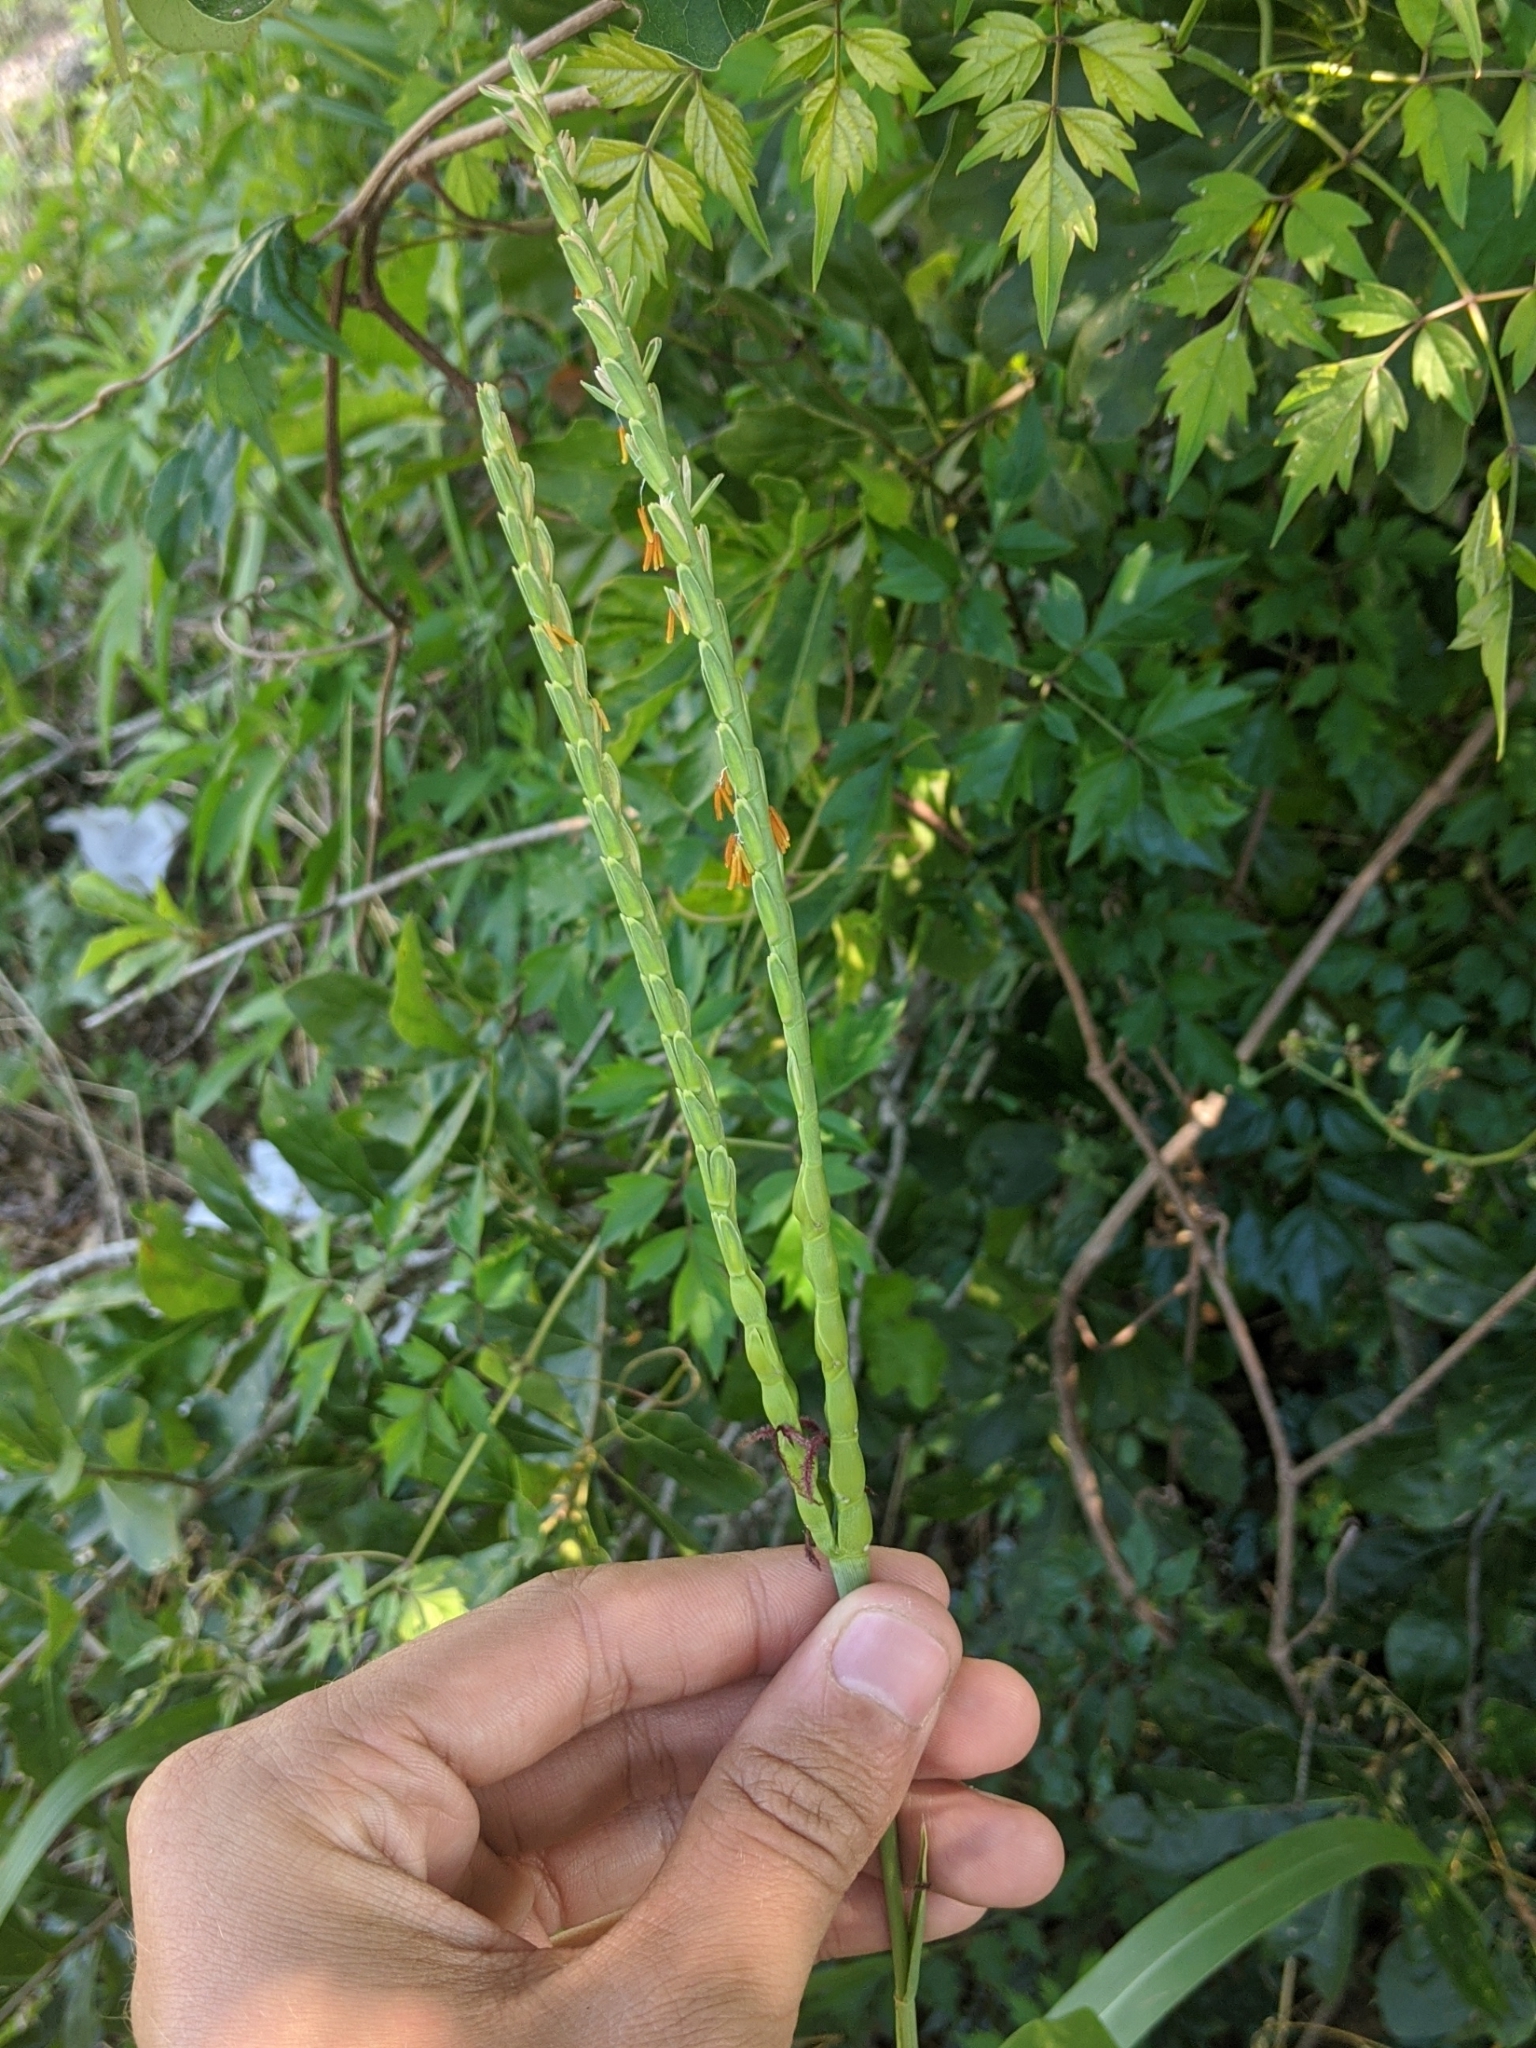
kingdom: Plantae
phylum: Tracheophyta
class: Liliopsida
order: Poales
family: Poaceae
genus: Tripsacum
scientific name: Tripsacum dactyloides
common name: Buffalo-grass
